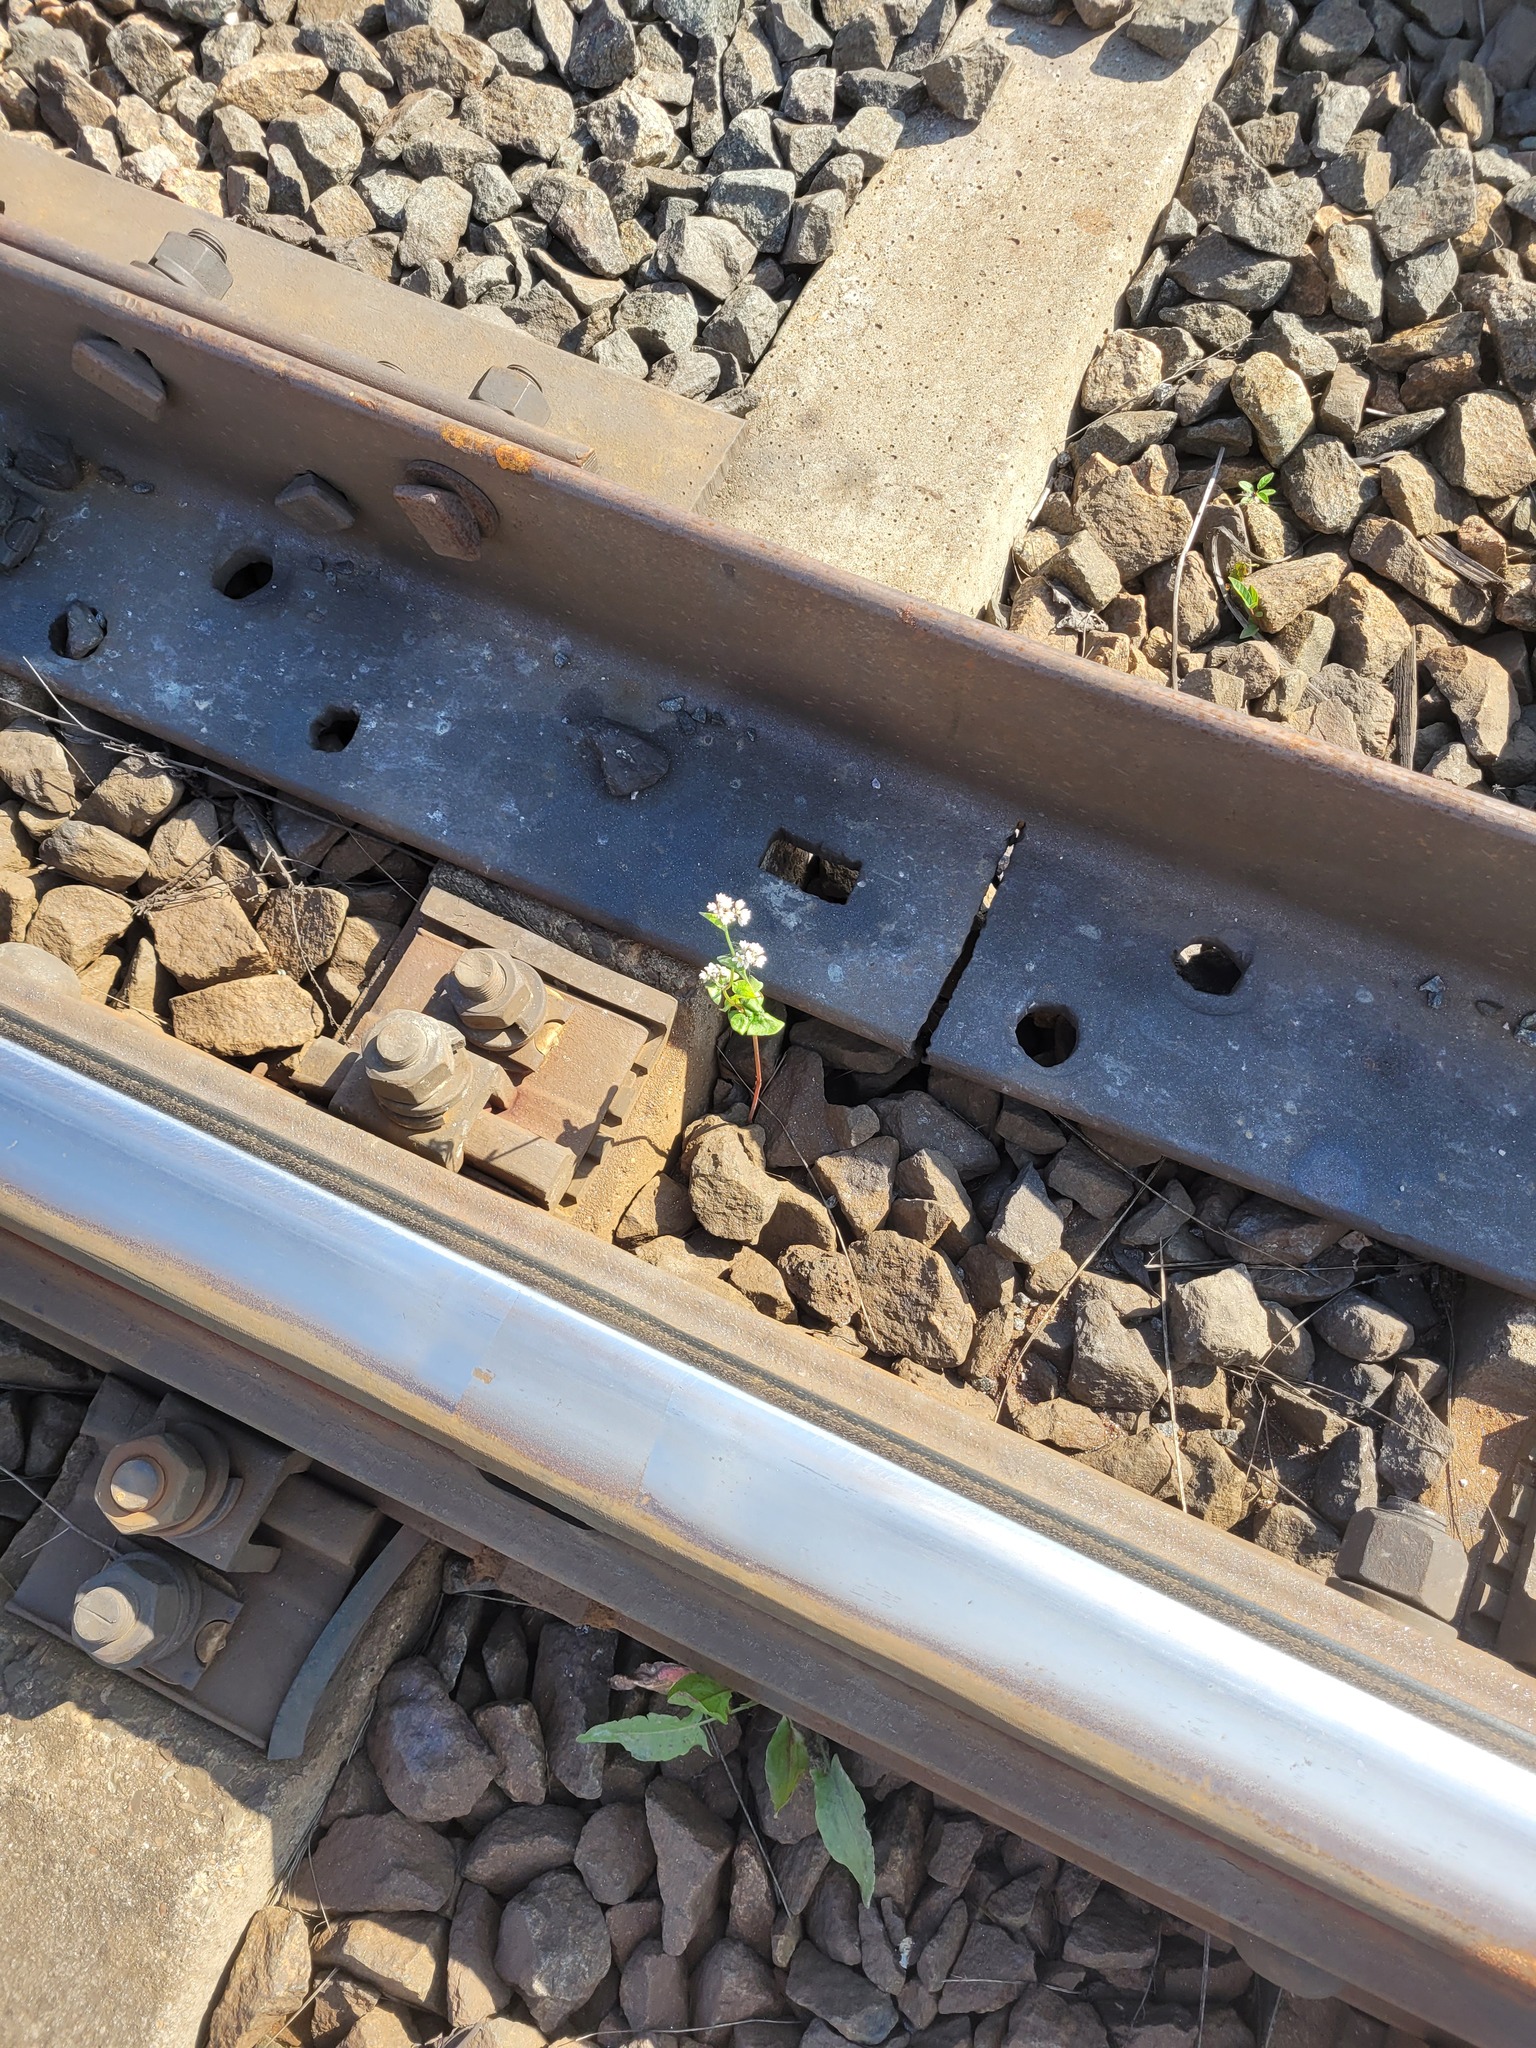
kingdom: Plantae
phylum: Tracheophyta
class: Magnoliopsida
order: Caryophyllales
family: Polygonaceae
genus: Fagopyrum
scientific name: Fagopyrum esculentum
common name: Buckwheat
